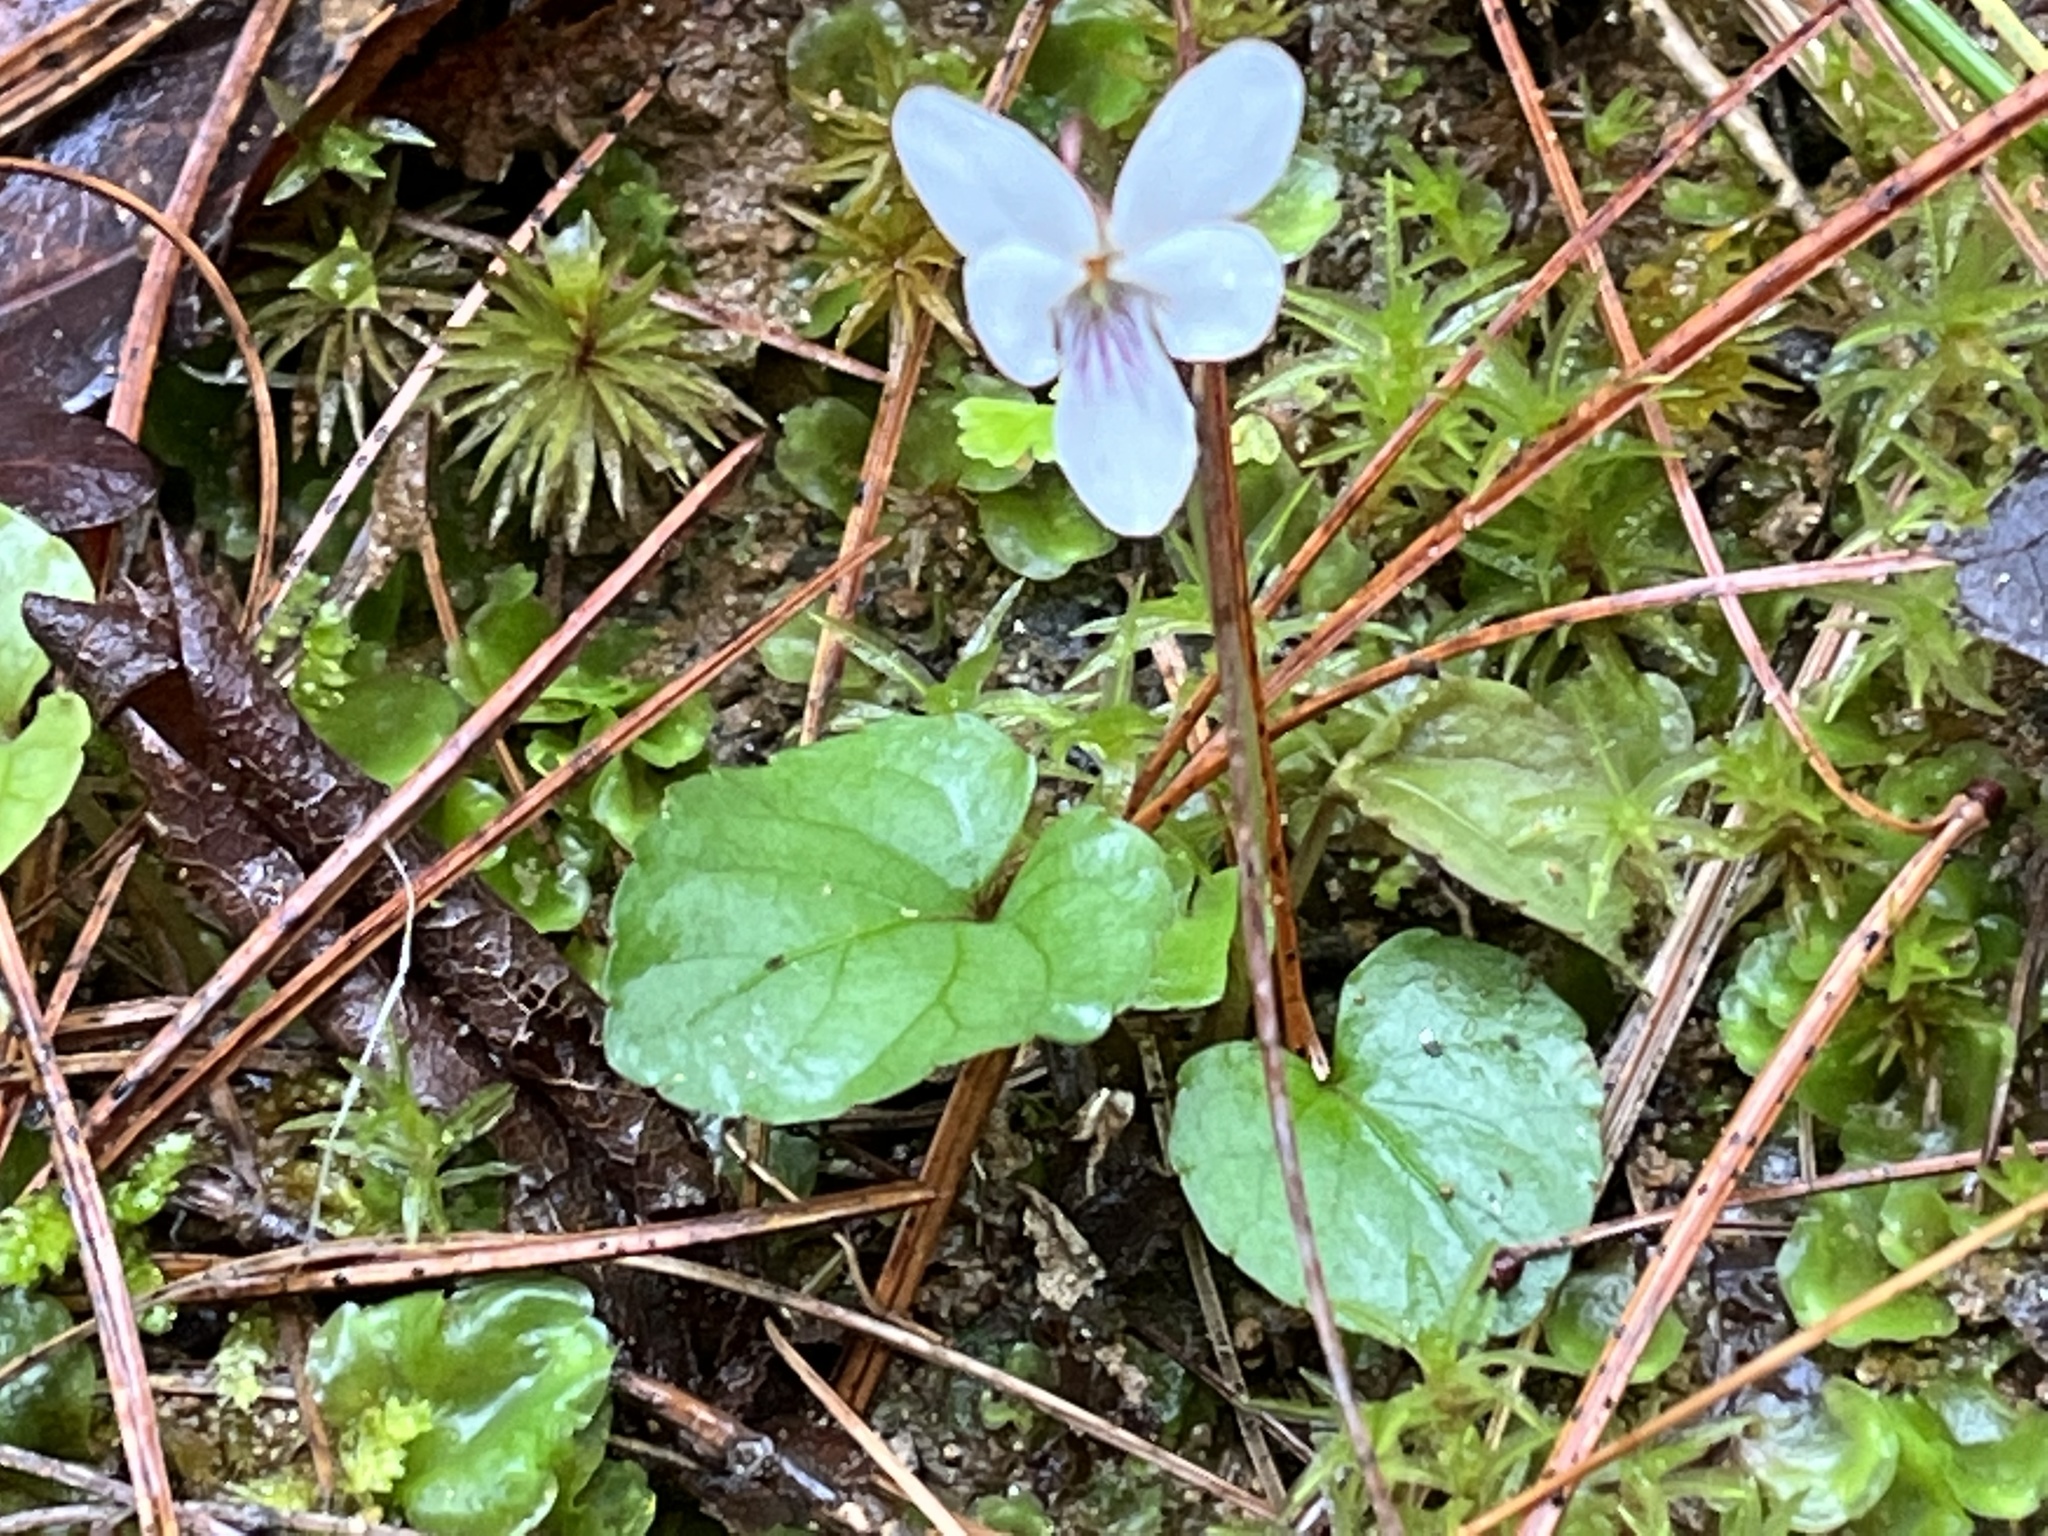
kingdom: Plantae
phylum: Tracheophyta
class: Magnoliopsida
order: Malpighiales
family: Violaceae
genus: Viola
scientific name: Viola blanda
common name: Sweet white violet
